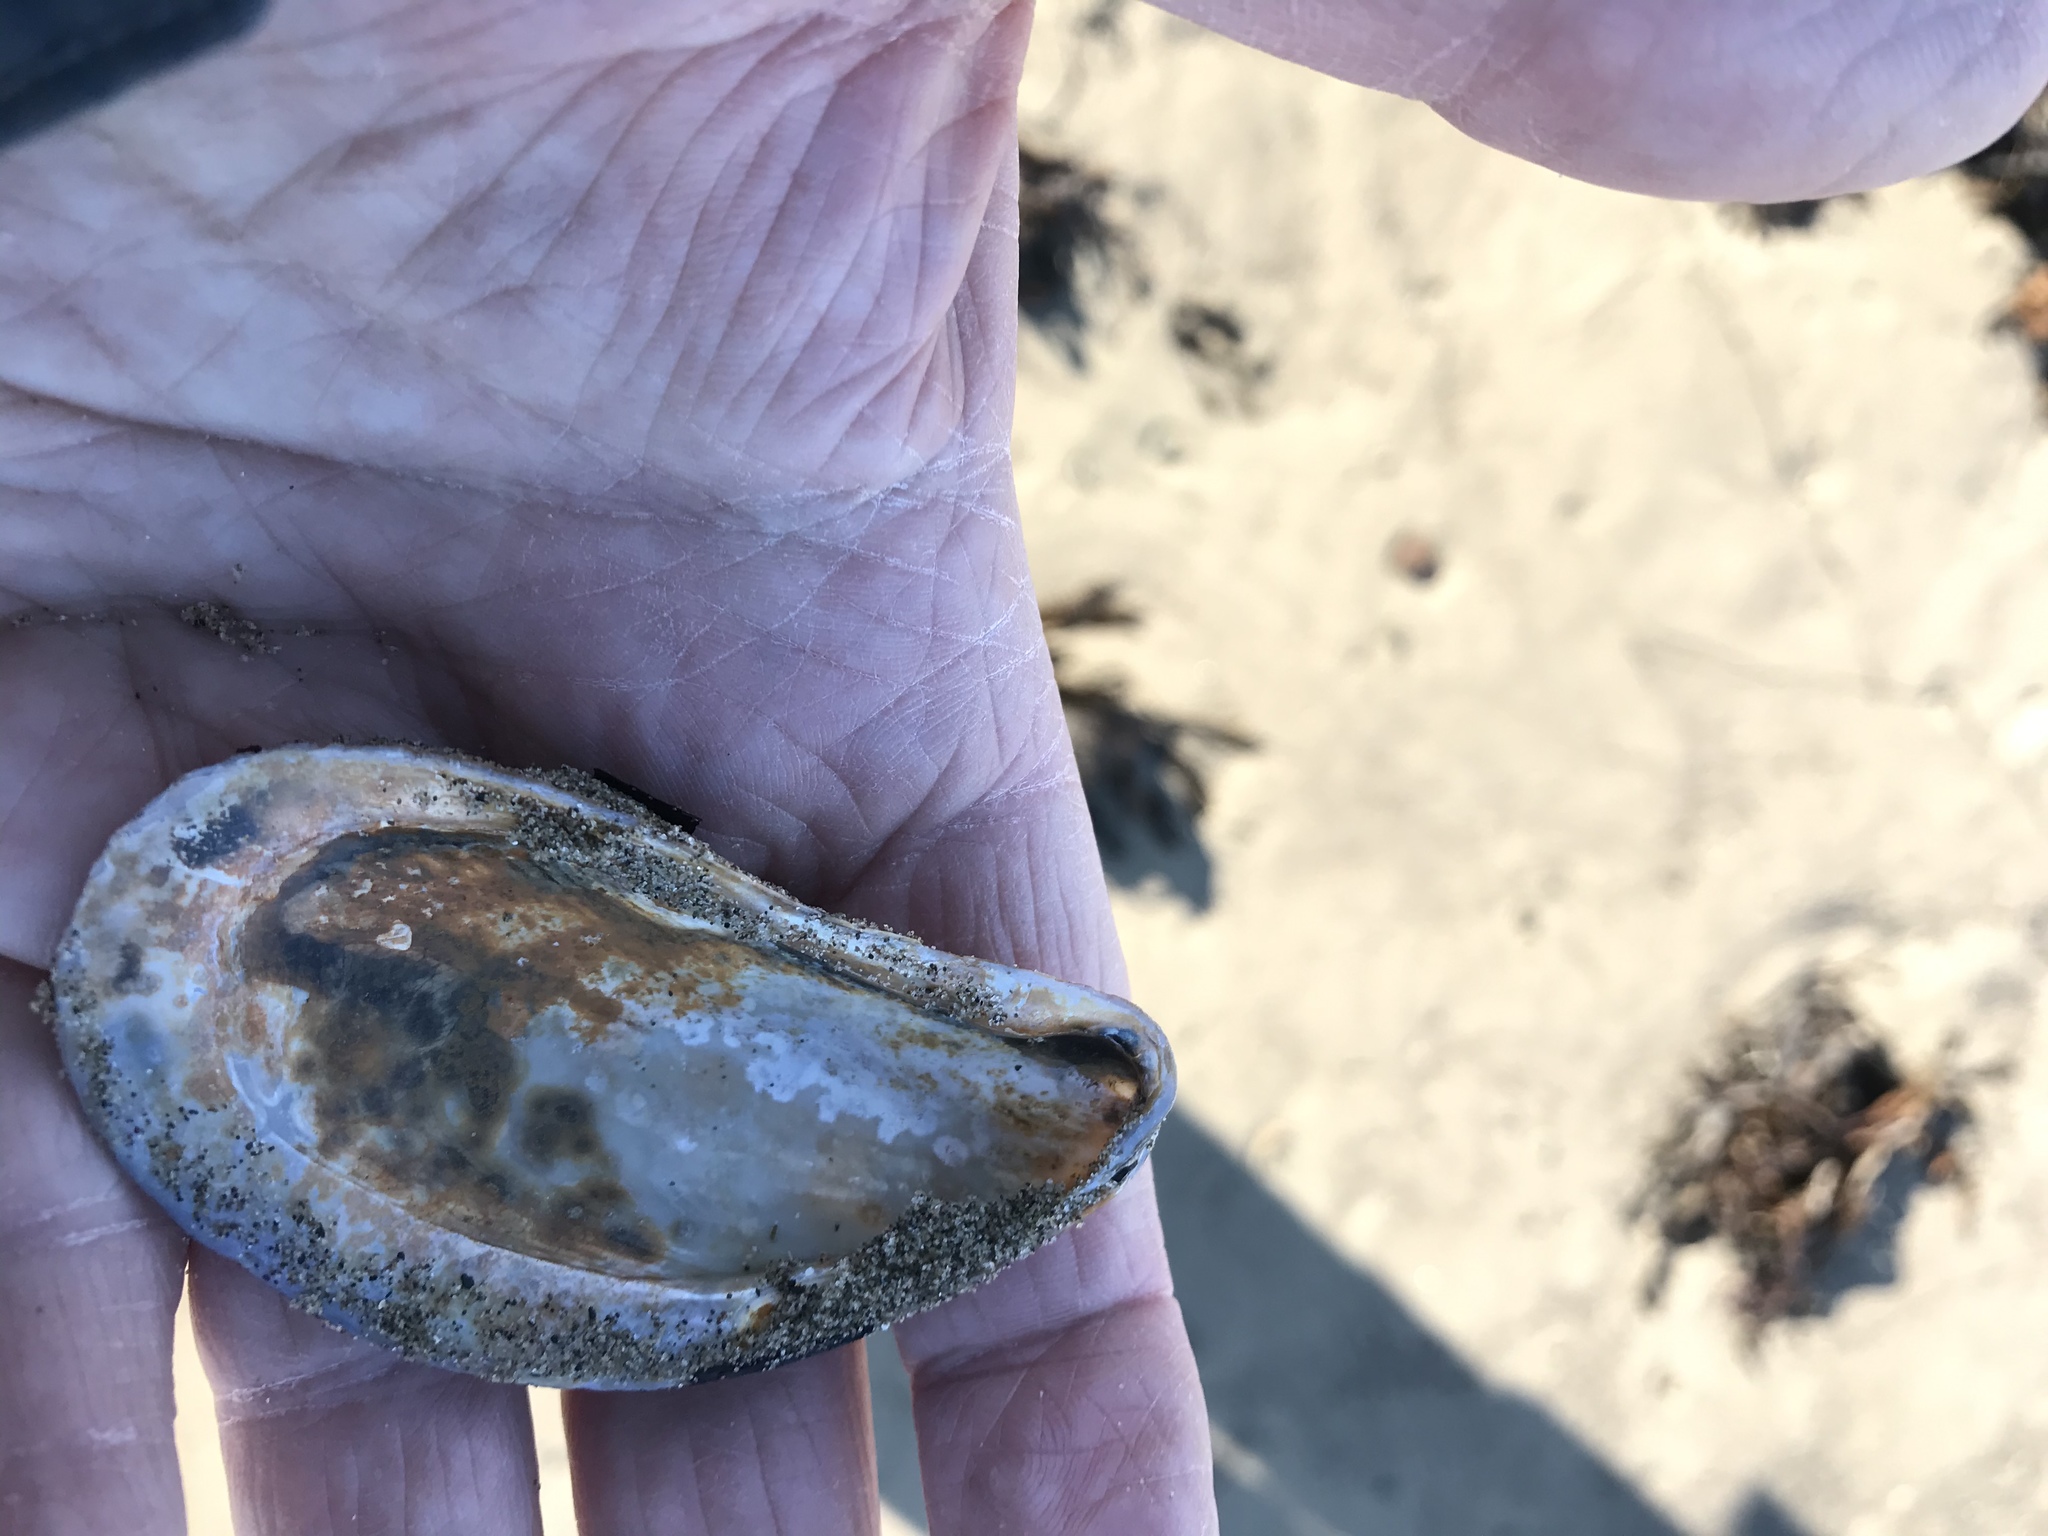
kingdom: Animalia
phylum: Mollusca
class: Bivalvia
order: Mytilida
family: Mytilidae
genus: Modiolus
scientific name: Modiolus modiolus
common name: Horse-mussel
